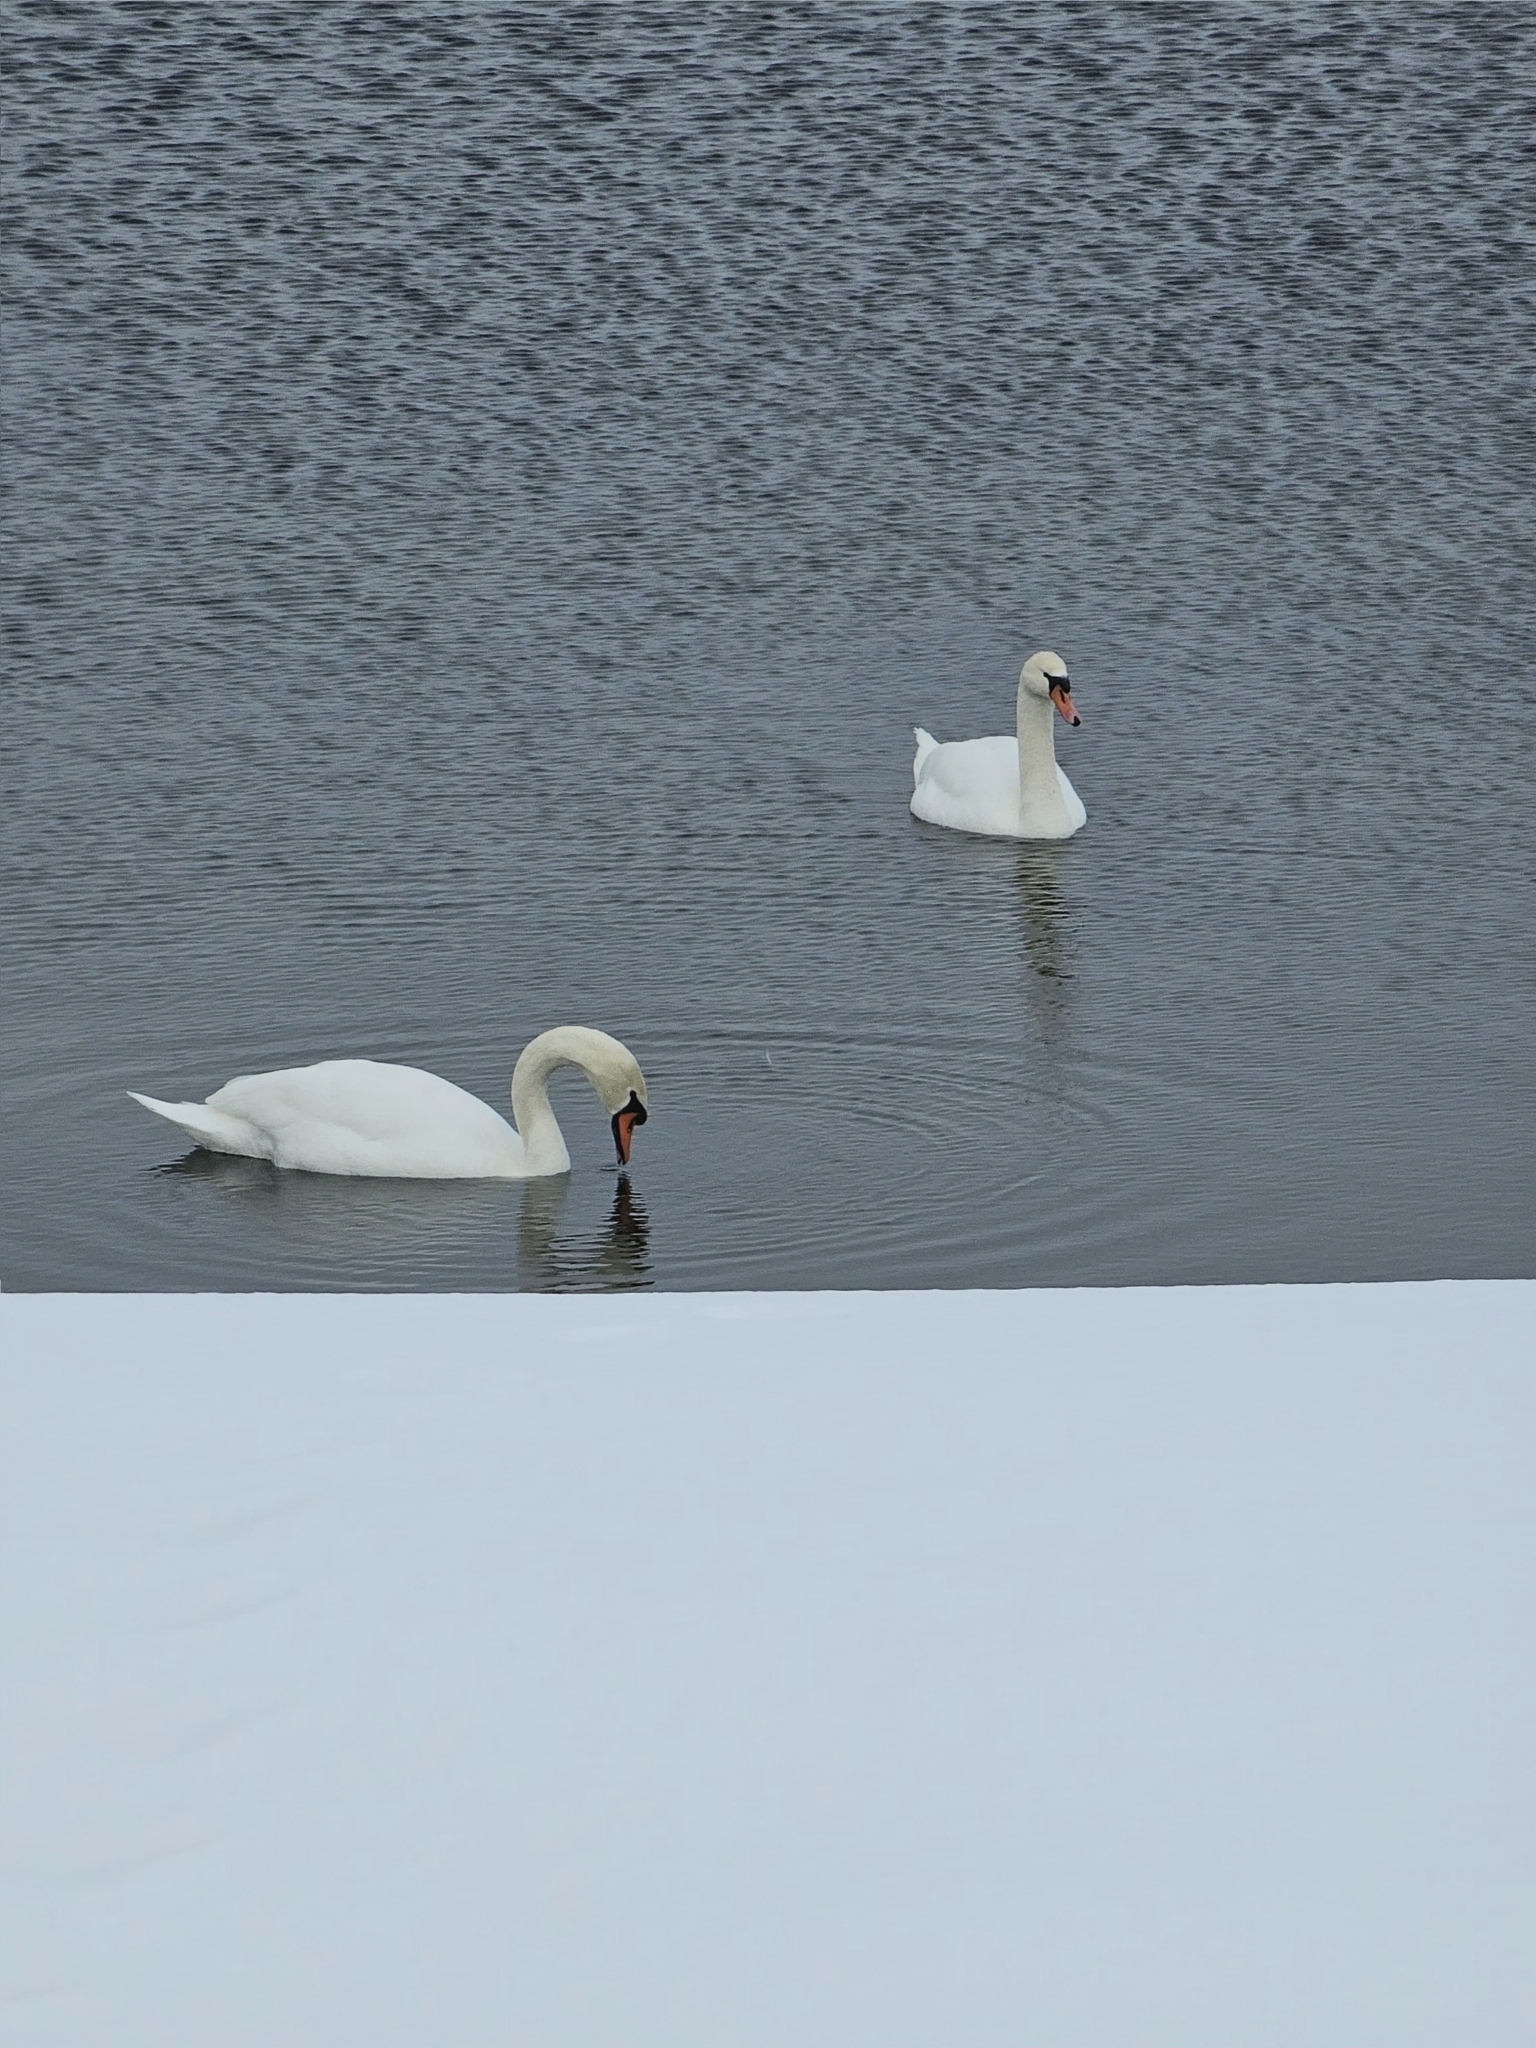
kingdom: Animalia
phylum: Chordata
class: Aves
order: Anseriformes
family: Anatidae
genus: Cygnus
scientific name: Cygnus olor
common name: Mute swan
